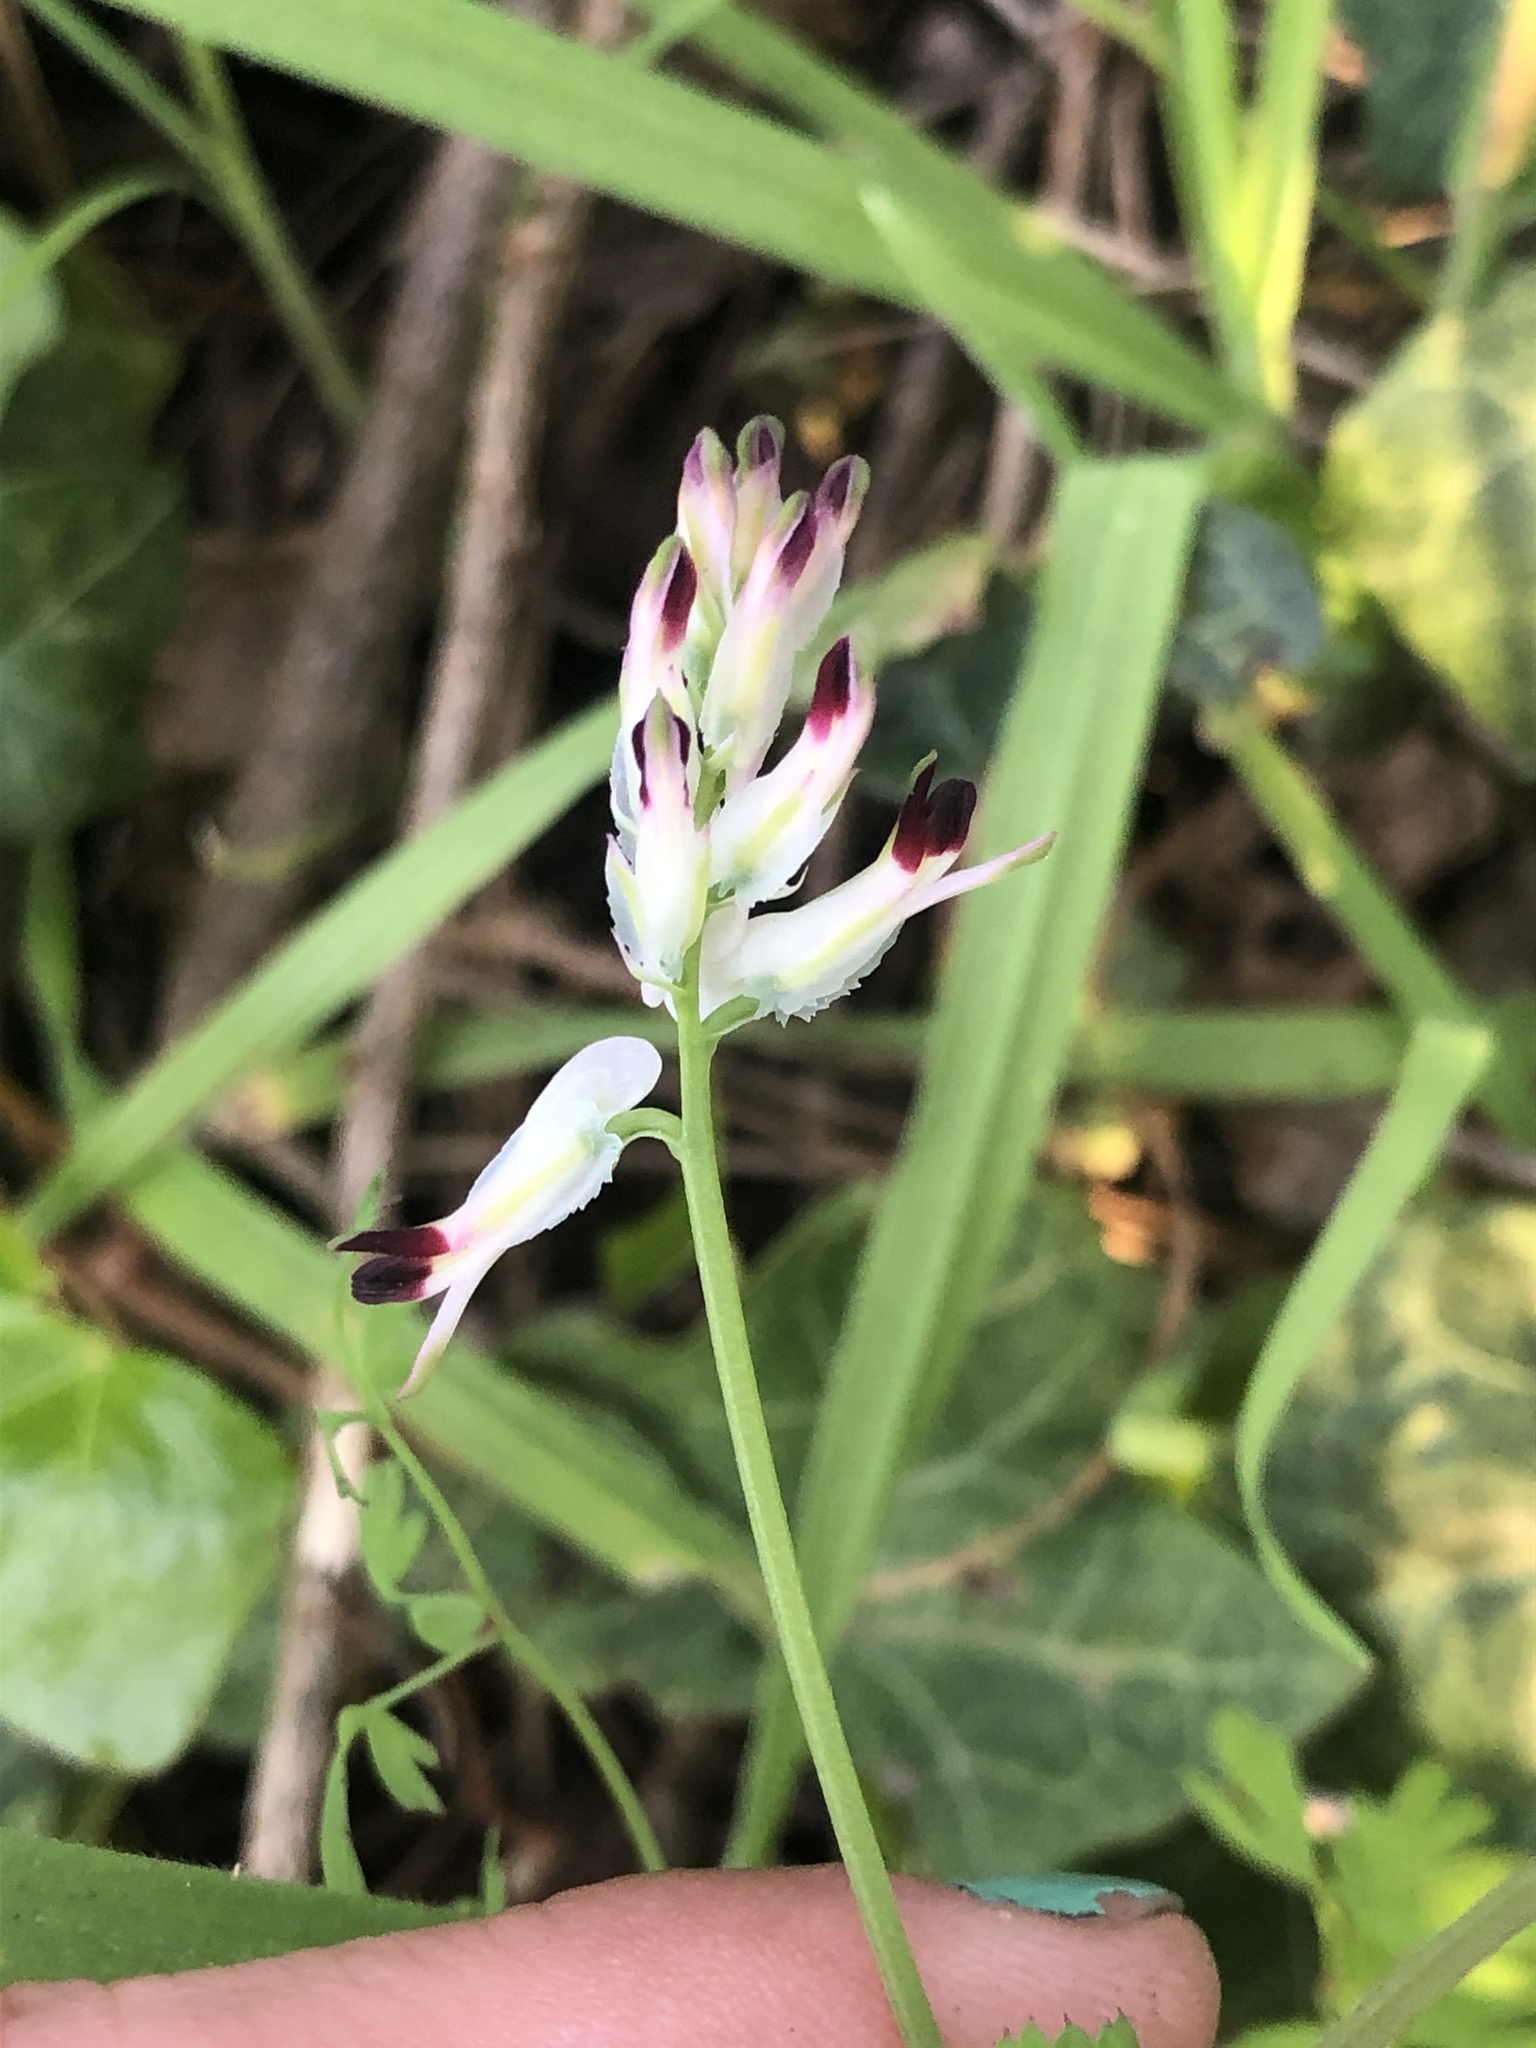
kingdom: Plantae
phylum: Tracheophyta
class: Magnoliopsida
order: Ranunculales
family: Papaveraceae
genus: Fumaria
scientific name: Fumaria capreolata
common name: White ramping-fumitory
